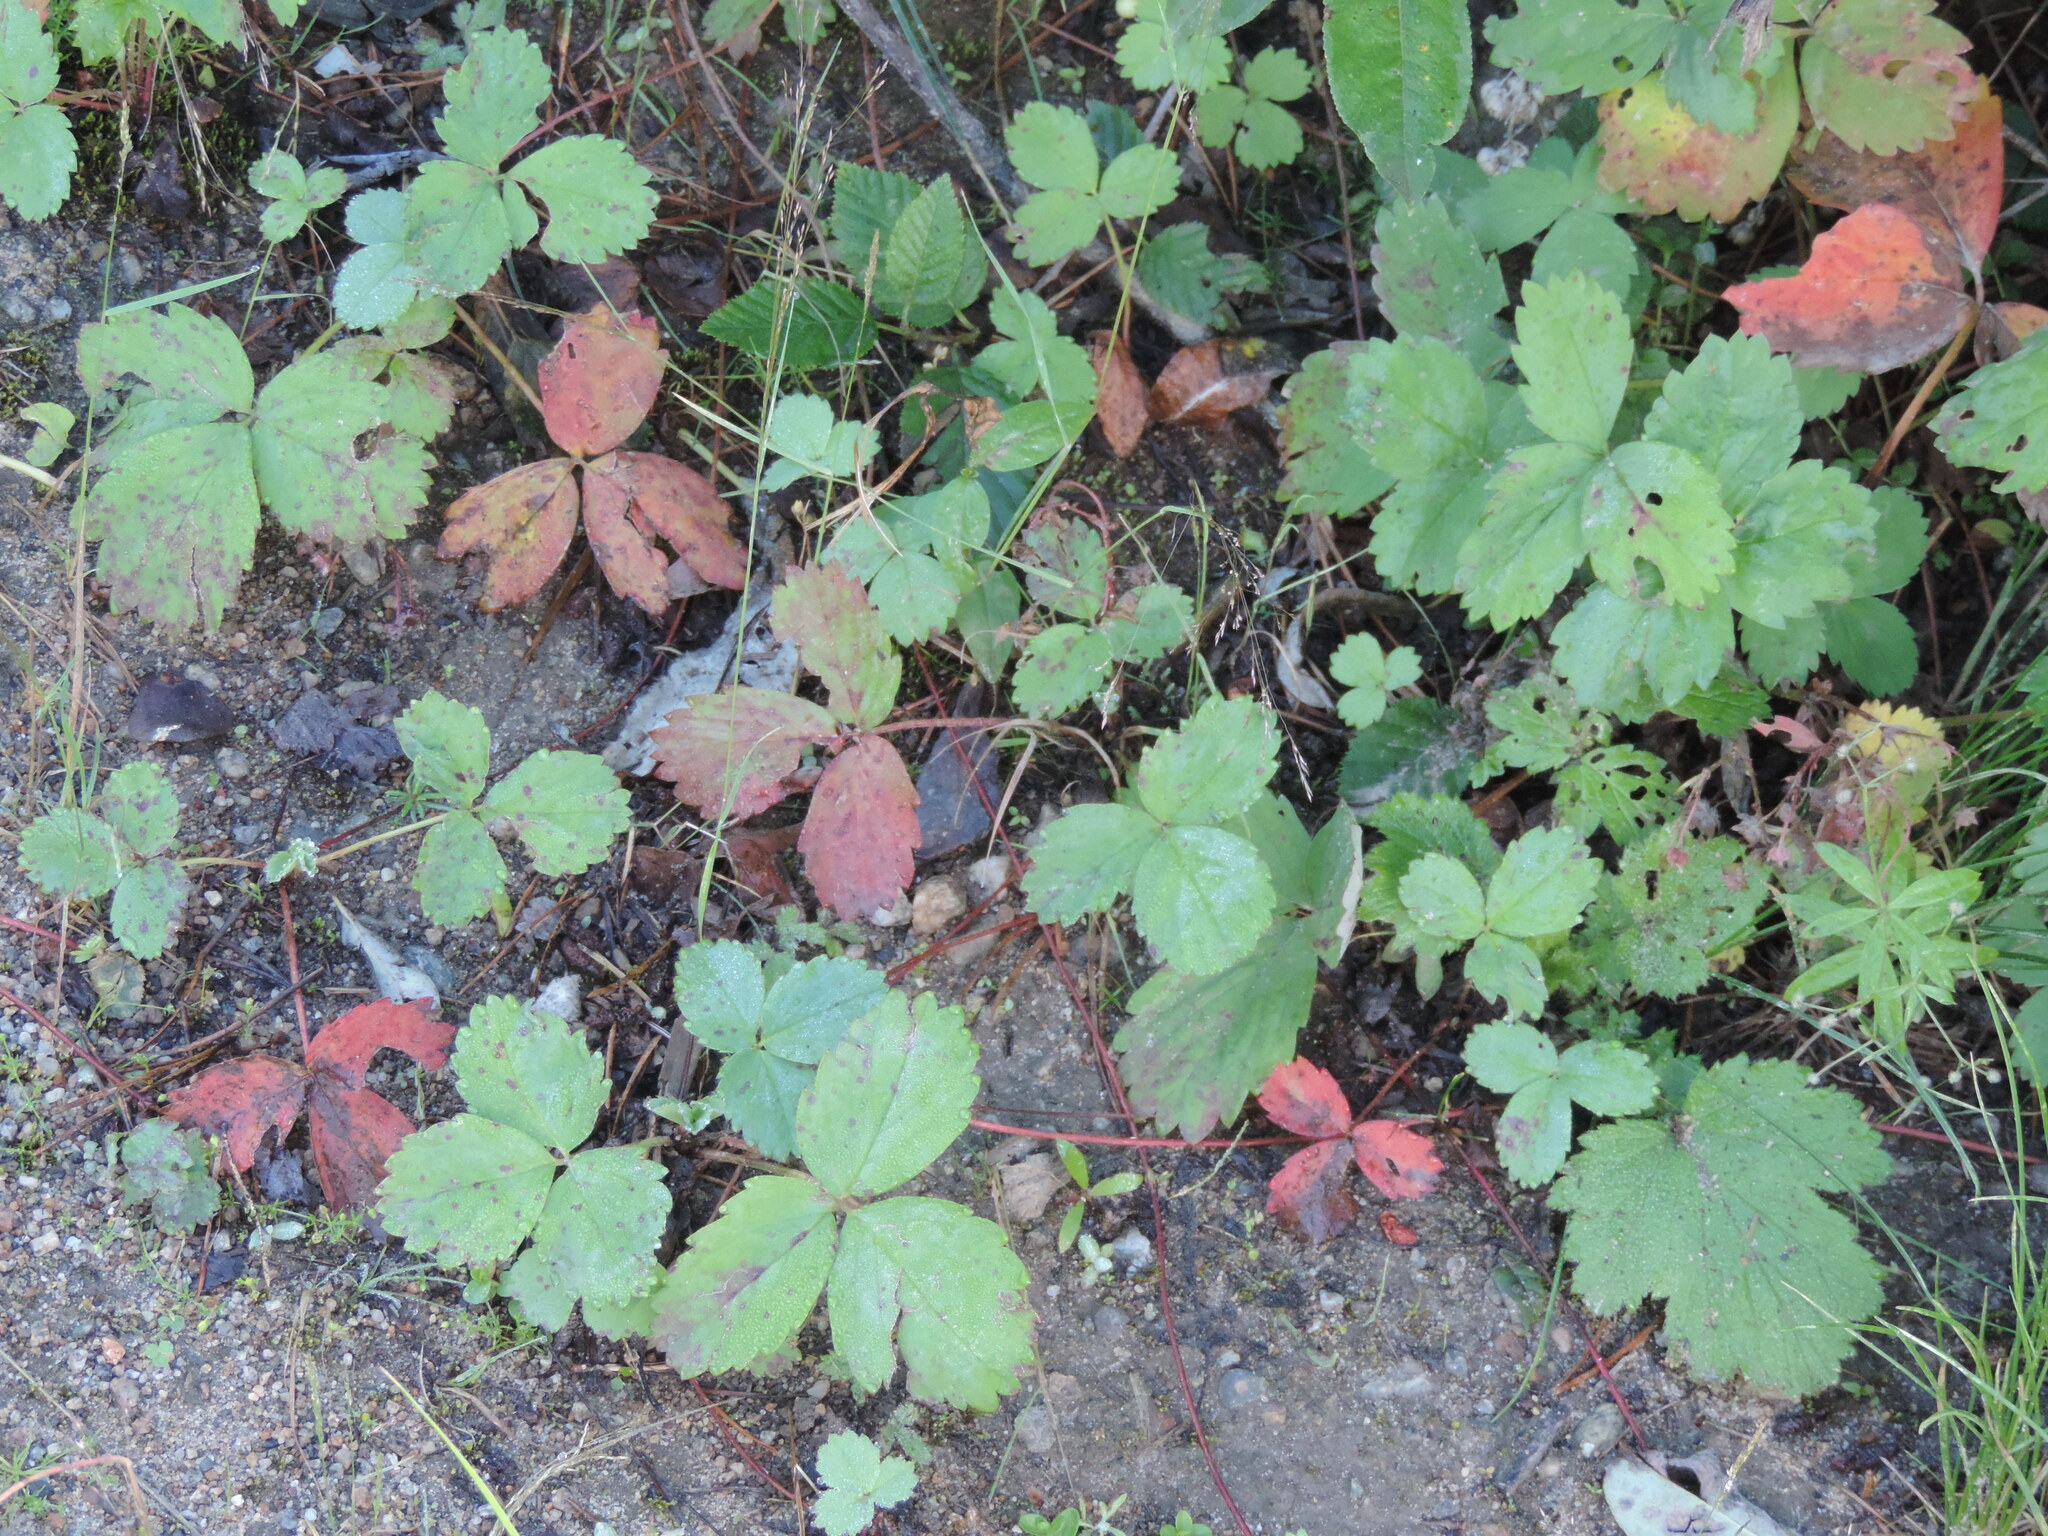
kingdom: Plantae
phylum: Tracheophyta
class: Magnoliopsida
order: Rosales
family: Rosaceae
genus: Fragaria
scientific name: Fragaria virginiana
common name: Thickleaved wild strawberry
